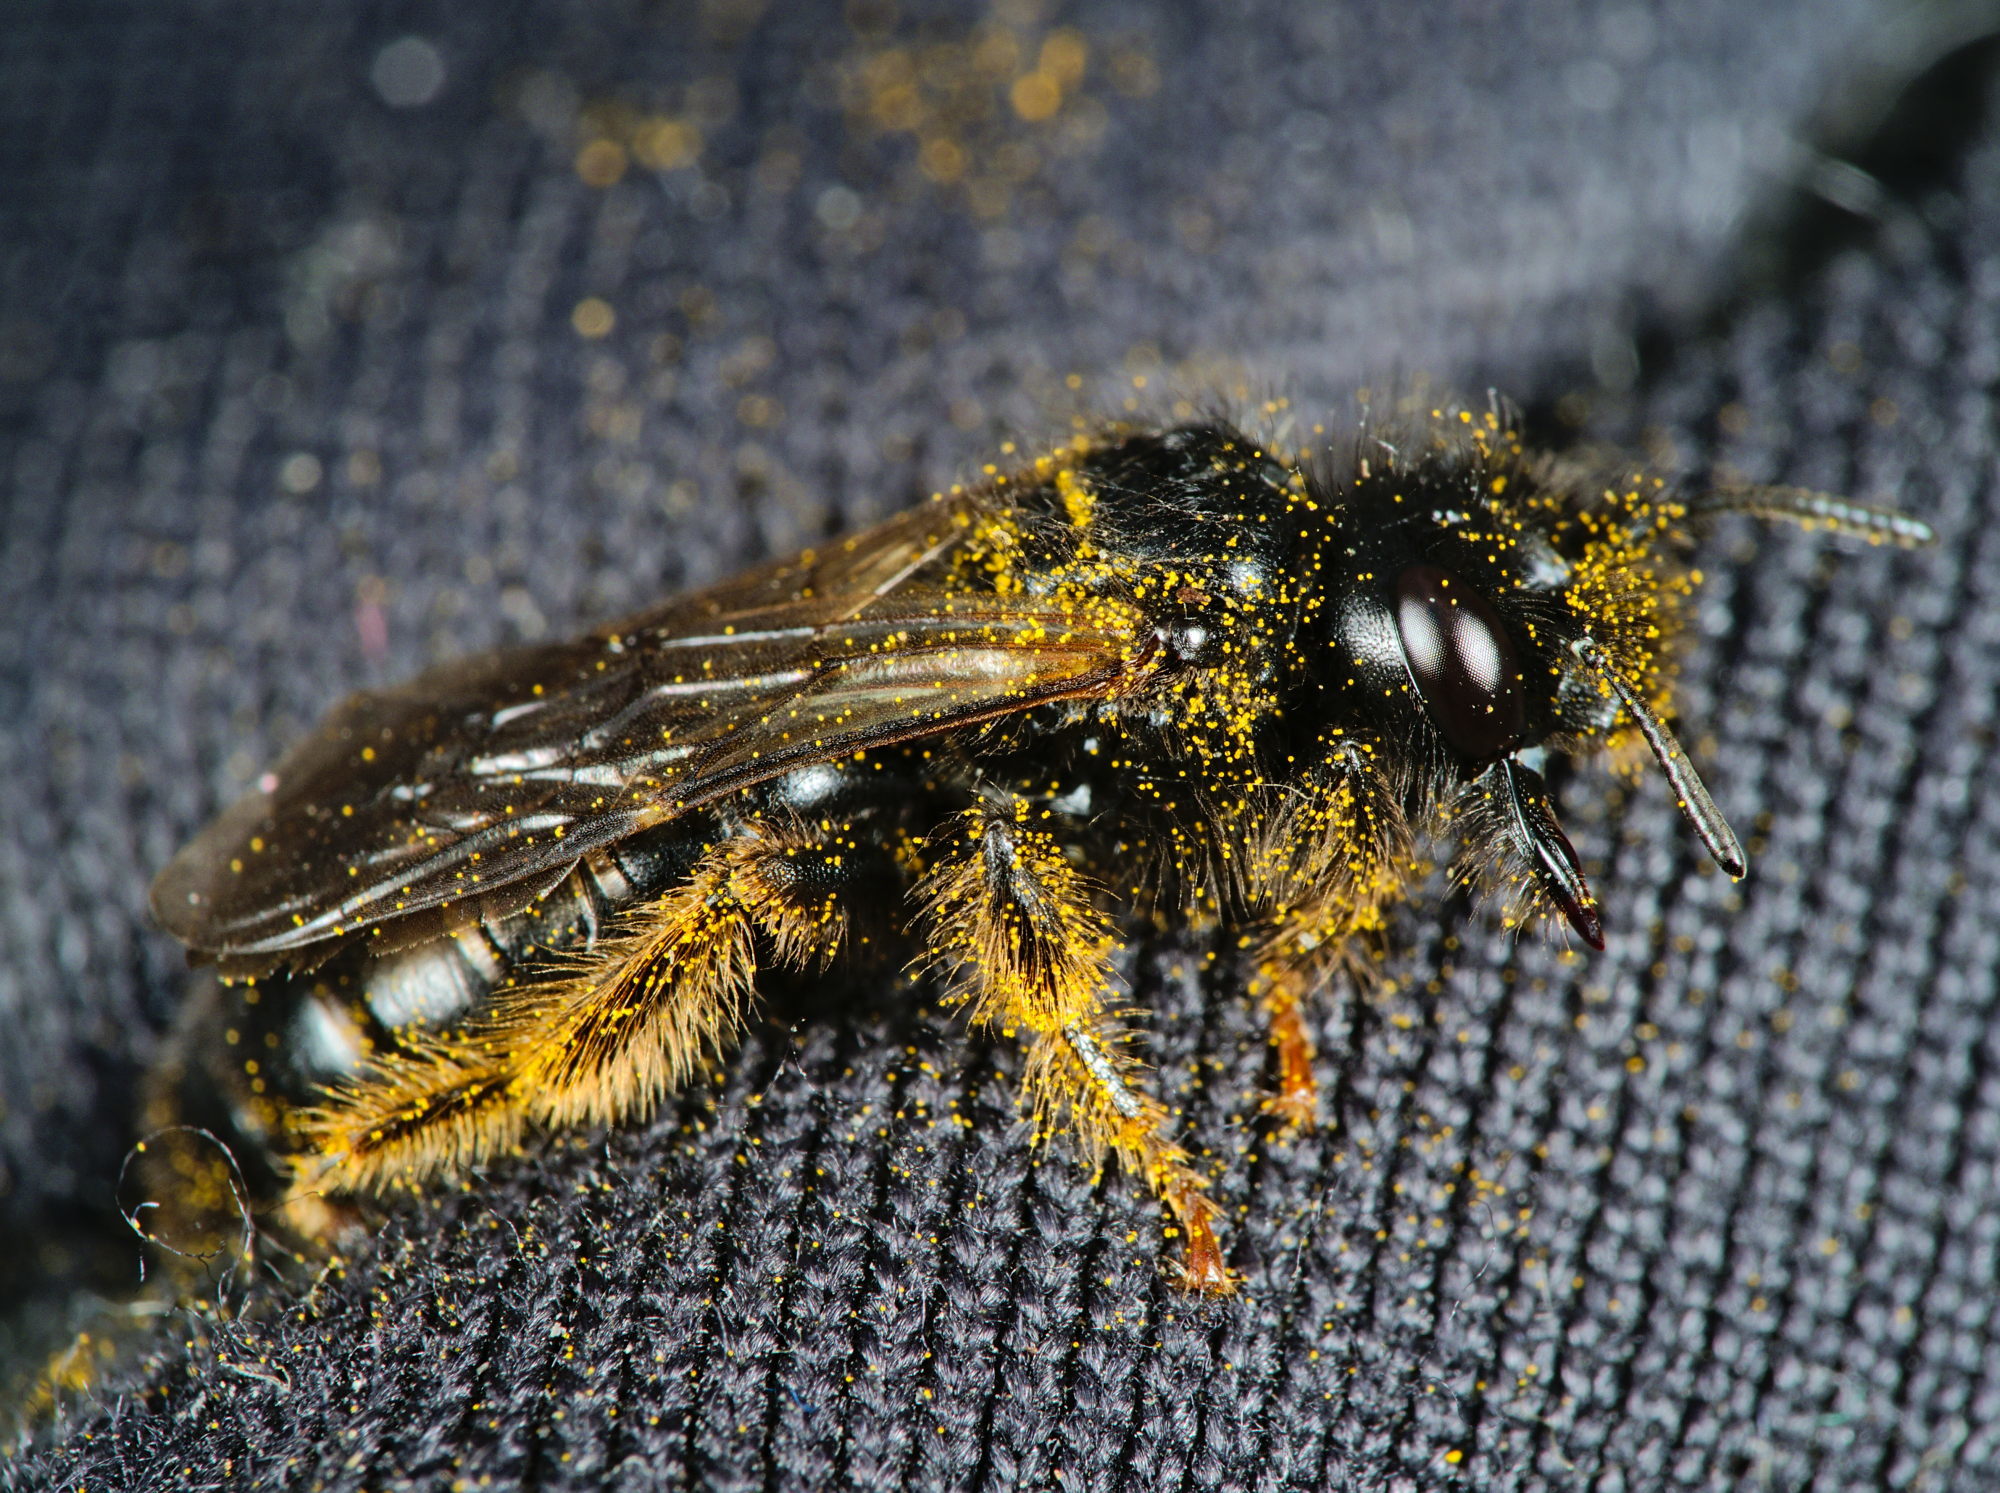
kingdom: Animalia
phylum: Arthropoda
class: Insecta
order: Hymenoptera
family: Andrenidae
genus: Panurgus
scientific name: Panurgus banksianus
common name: Large shaggy bee
